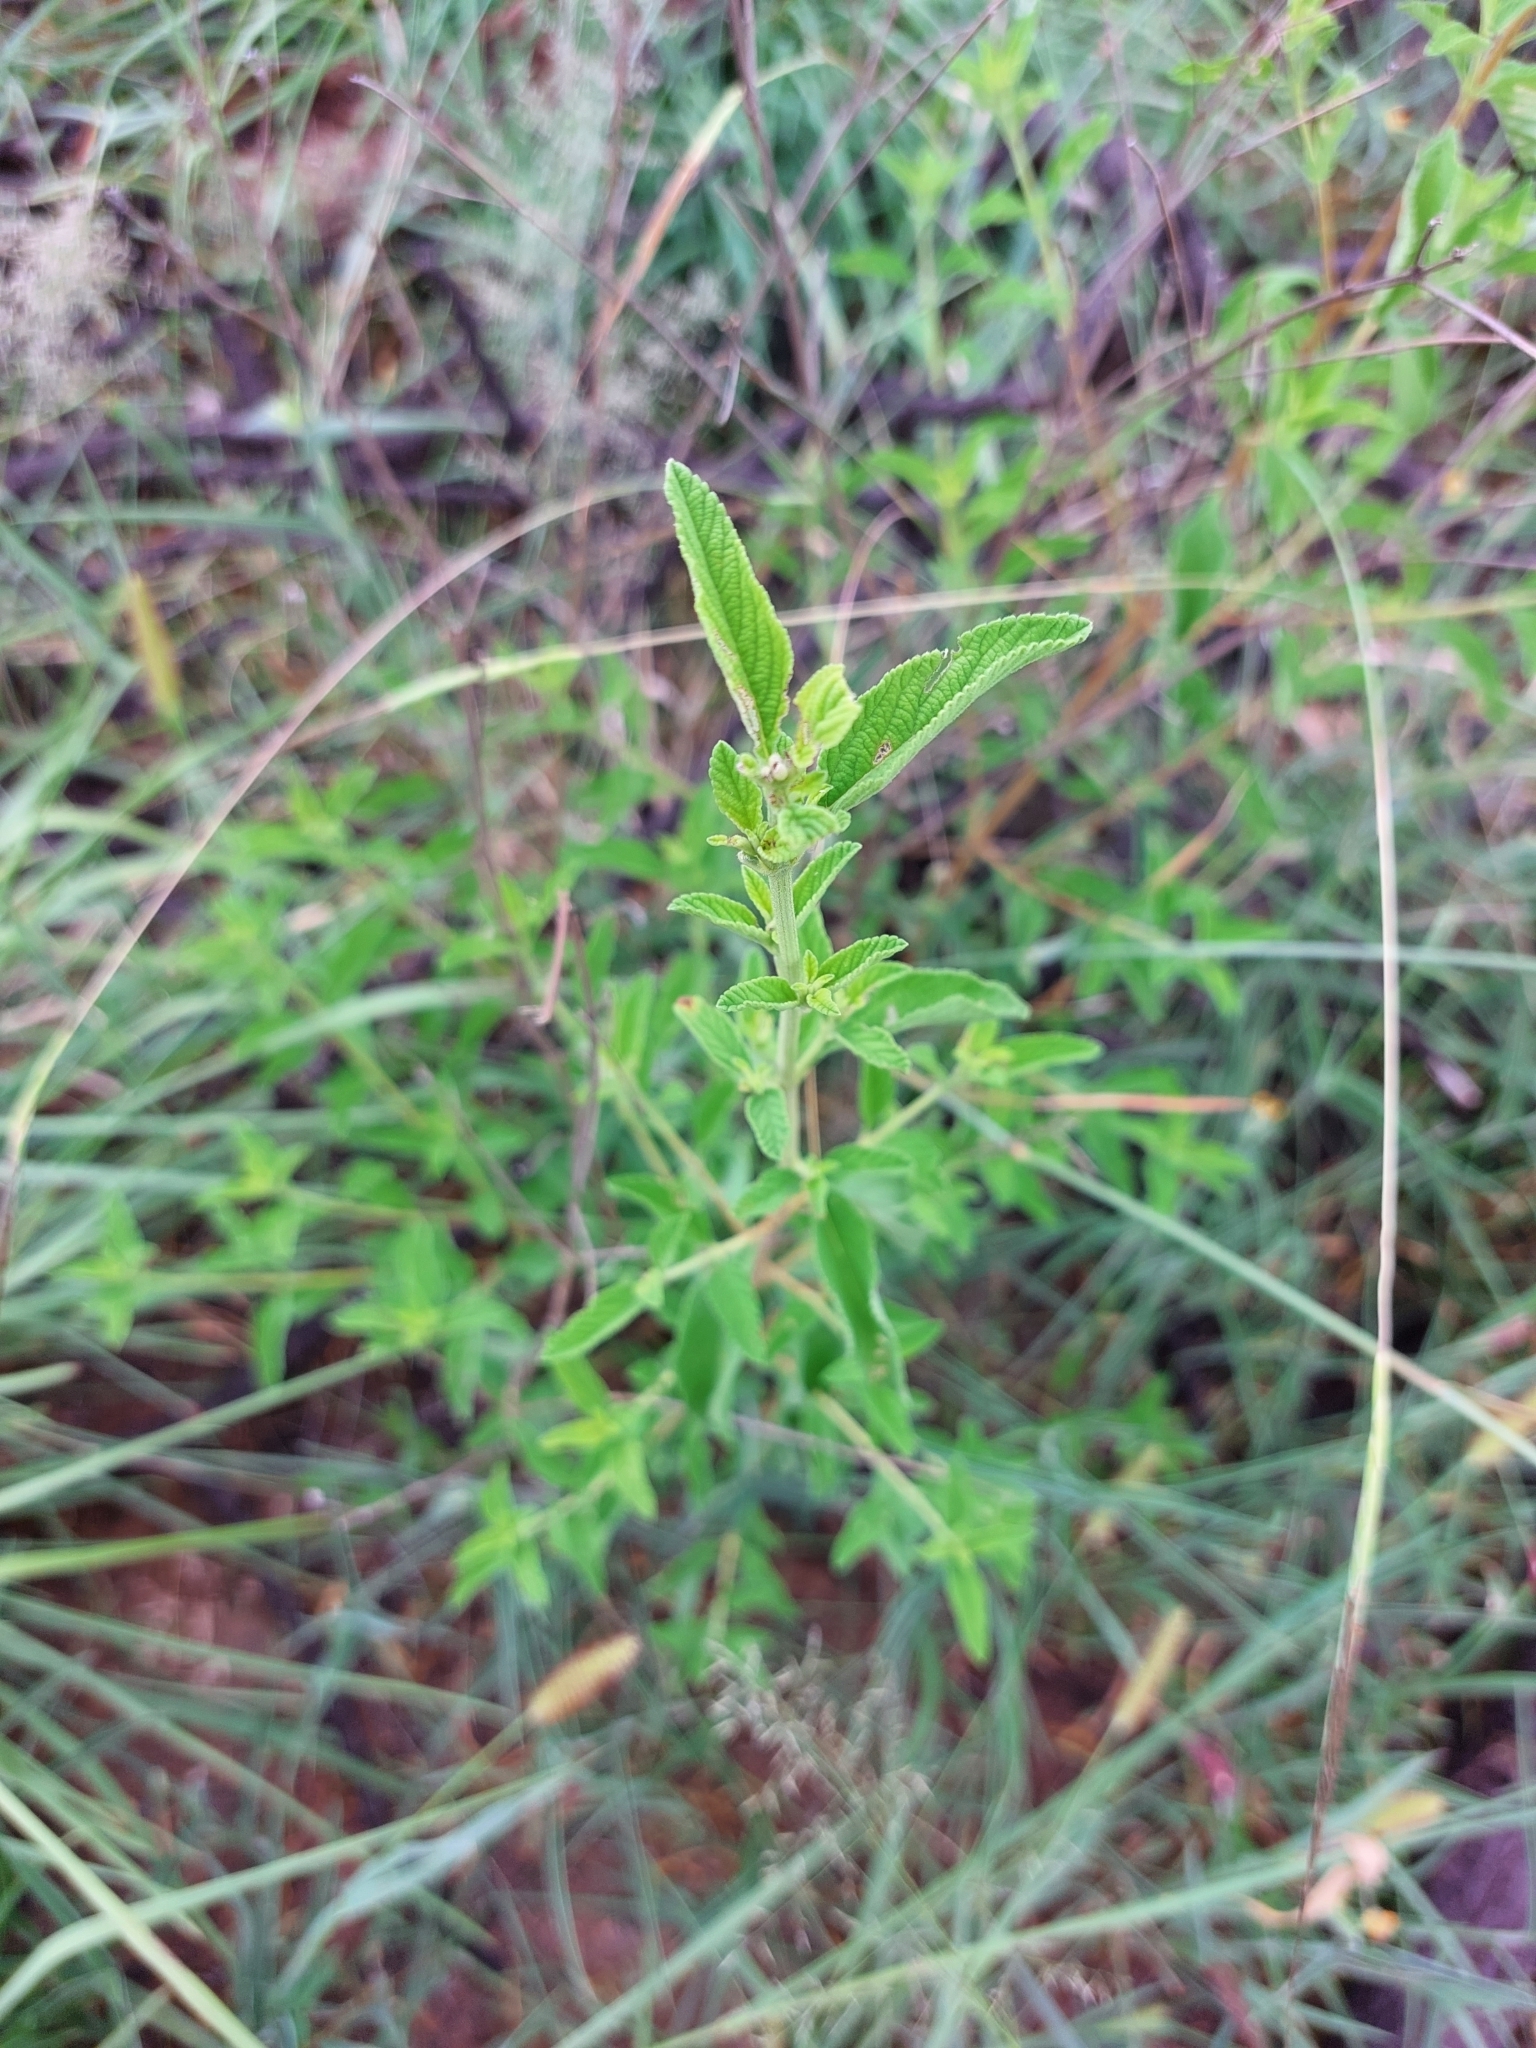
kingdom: Plantae
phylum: Tracheophyta
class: Magnoliopsida
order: Lamiales
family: Verbenaceae
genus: Lippia
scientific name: Lippia javanica
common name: Lemonbush
